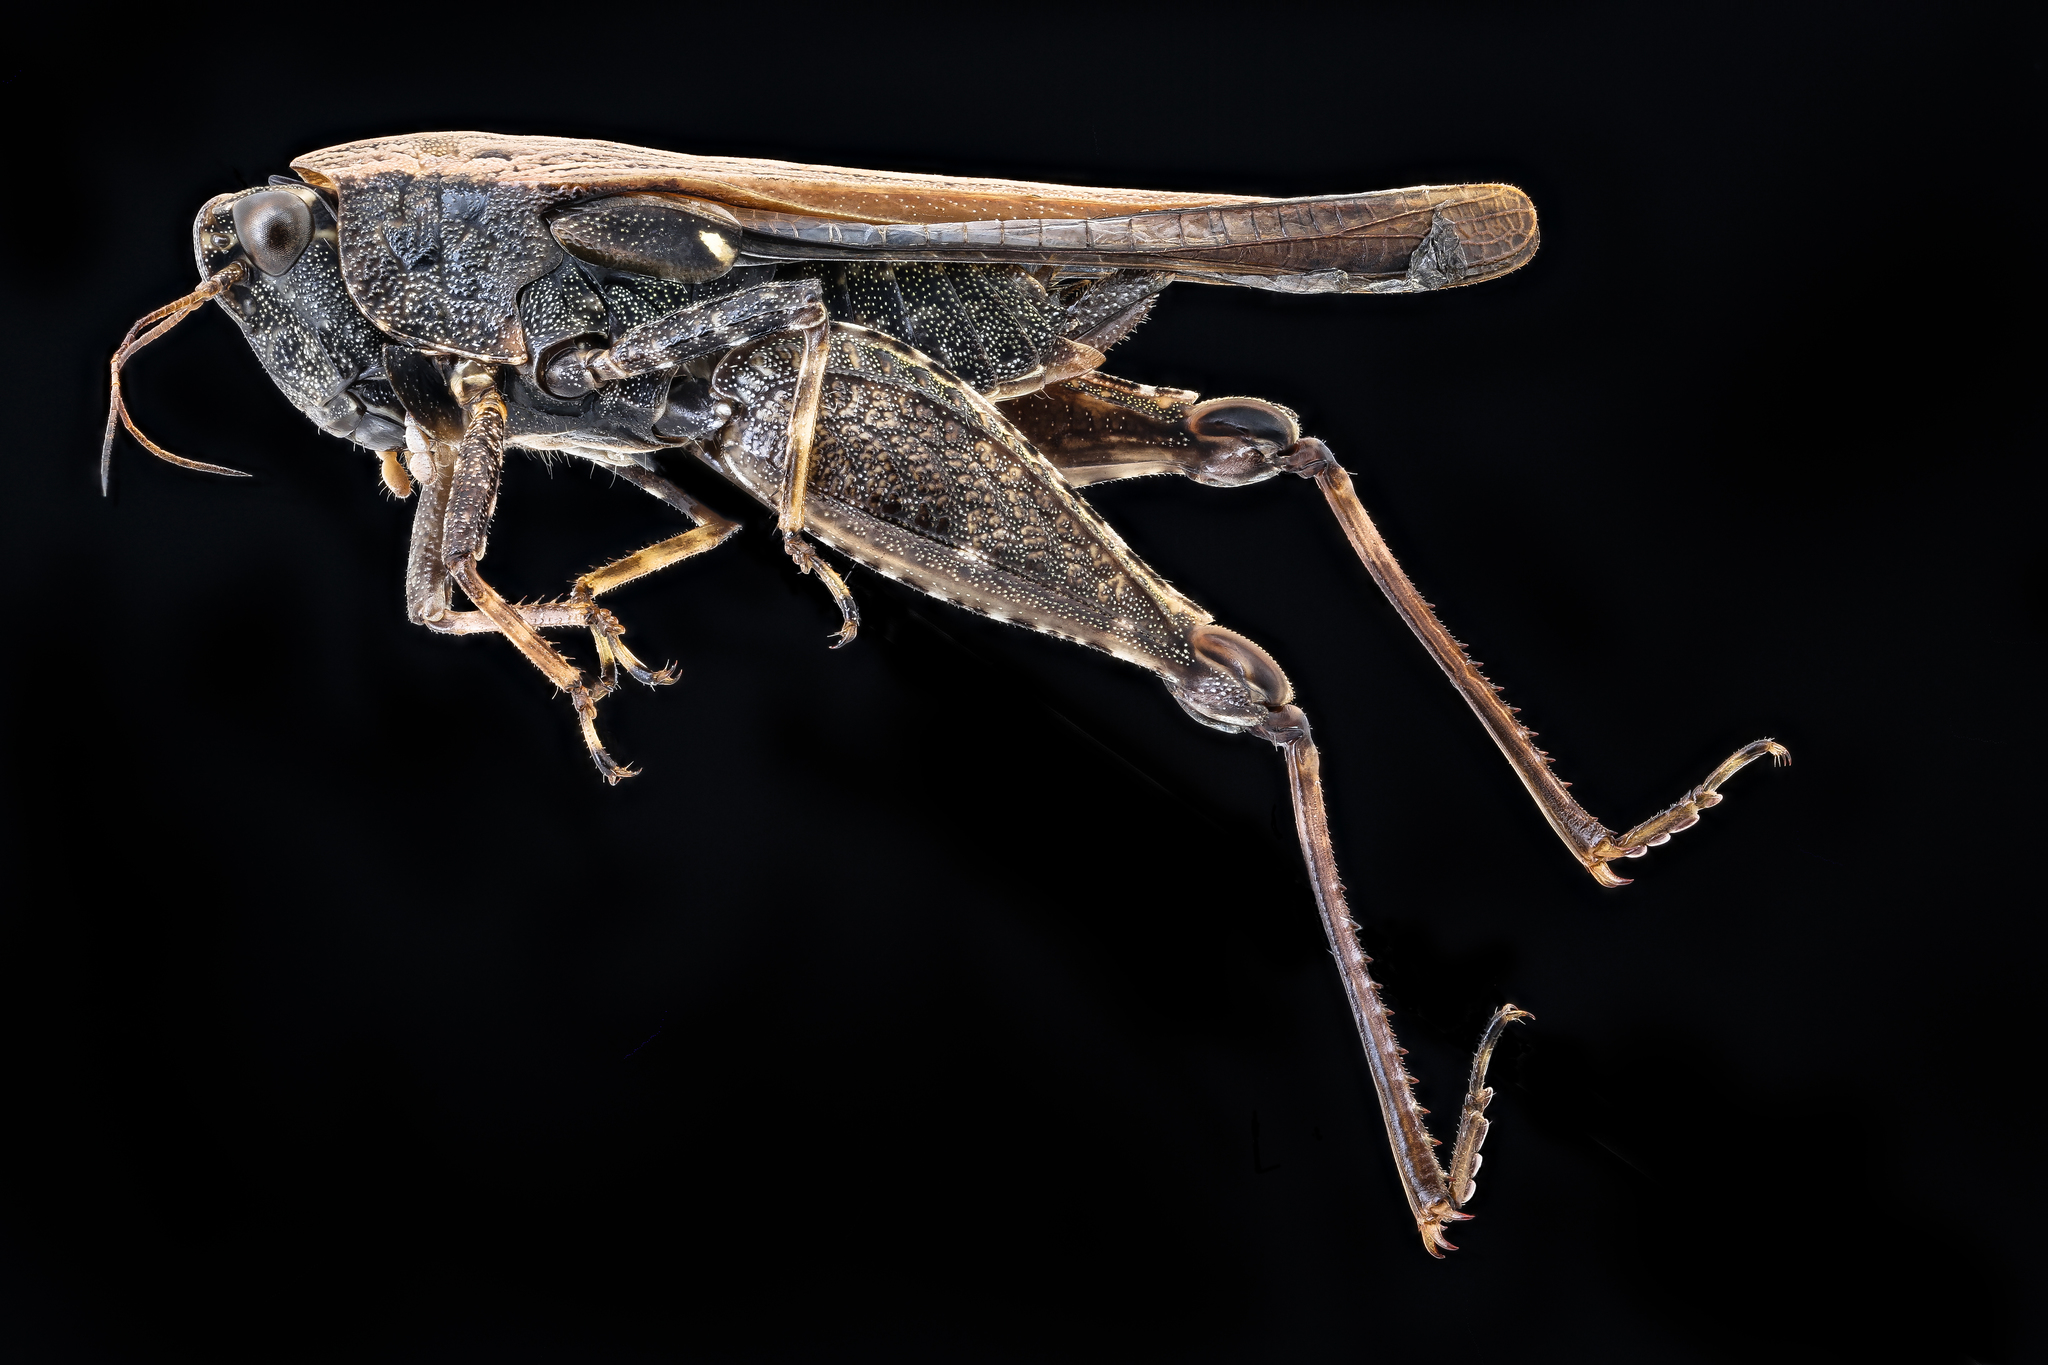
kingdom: Animalia
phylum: Arthropoda
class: Insecta
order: Orthoptera
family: Tetrigidae
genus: Tettigidea
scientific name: Tettigidea laterale
